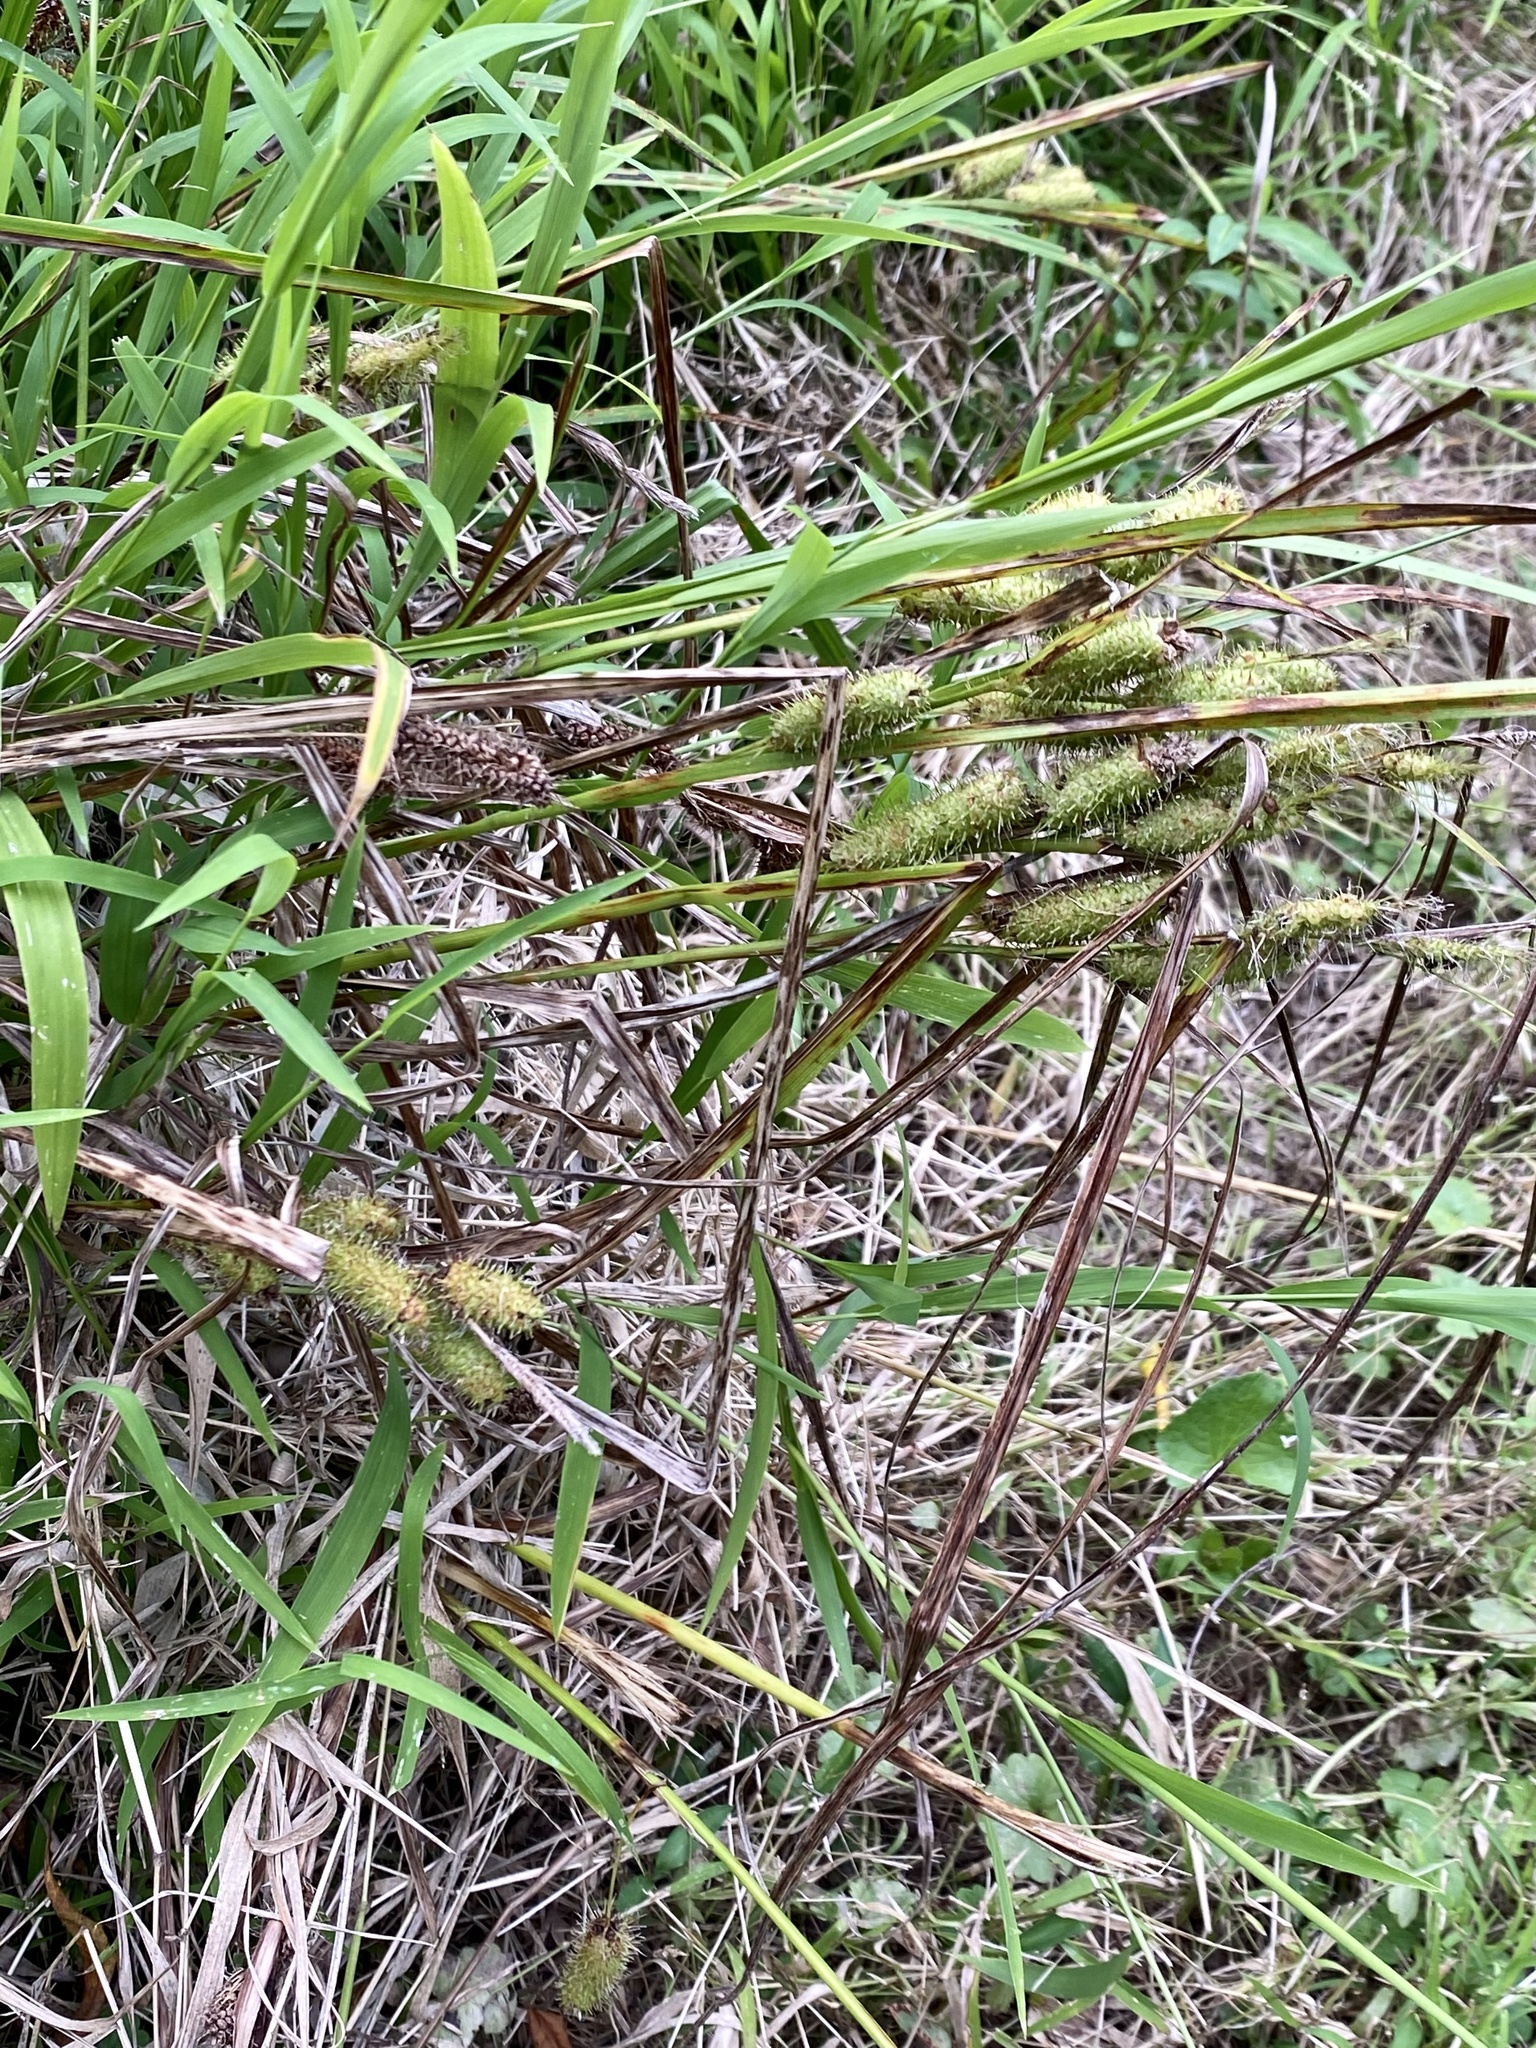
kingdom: Plantae
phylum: Tracheophyta
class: Liliopsida
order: Poales
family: Cyperaceae
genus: Carex
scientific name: Carex frankii
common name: Frank's sedge
